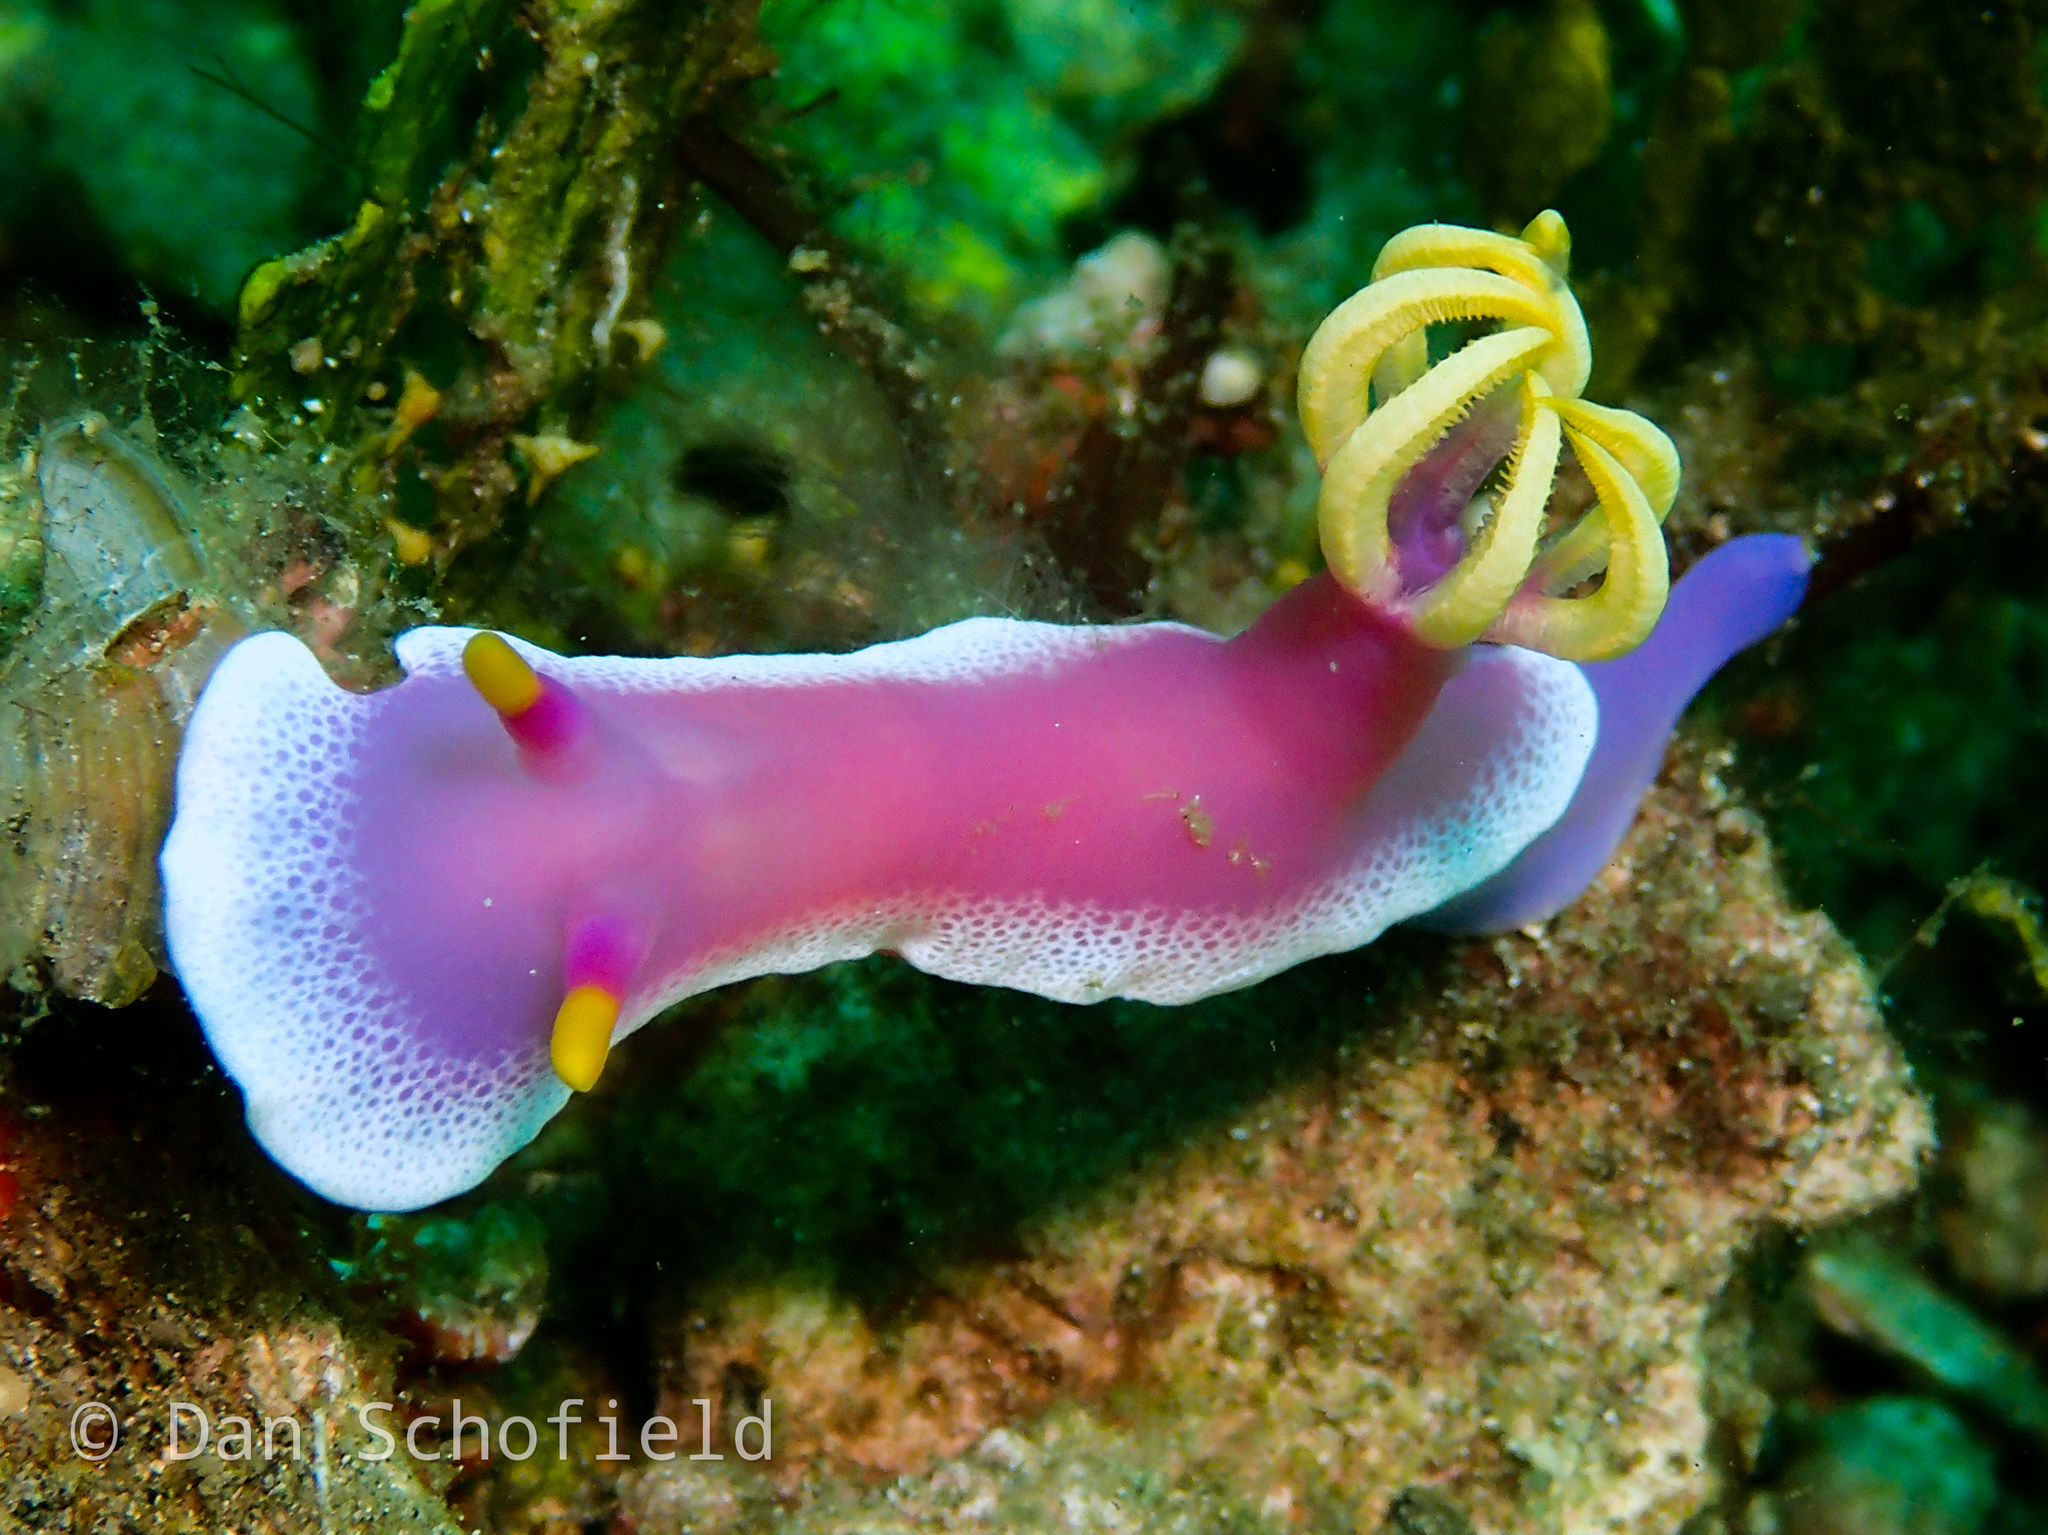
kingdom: Animalia
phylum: Mollusca
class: Gastropoda
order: Nudibranchia
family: Chromodorididae
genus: Hypselodoris
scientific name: Hypselodoris apolegma
